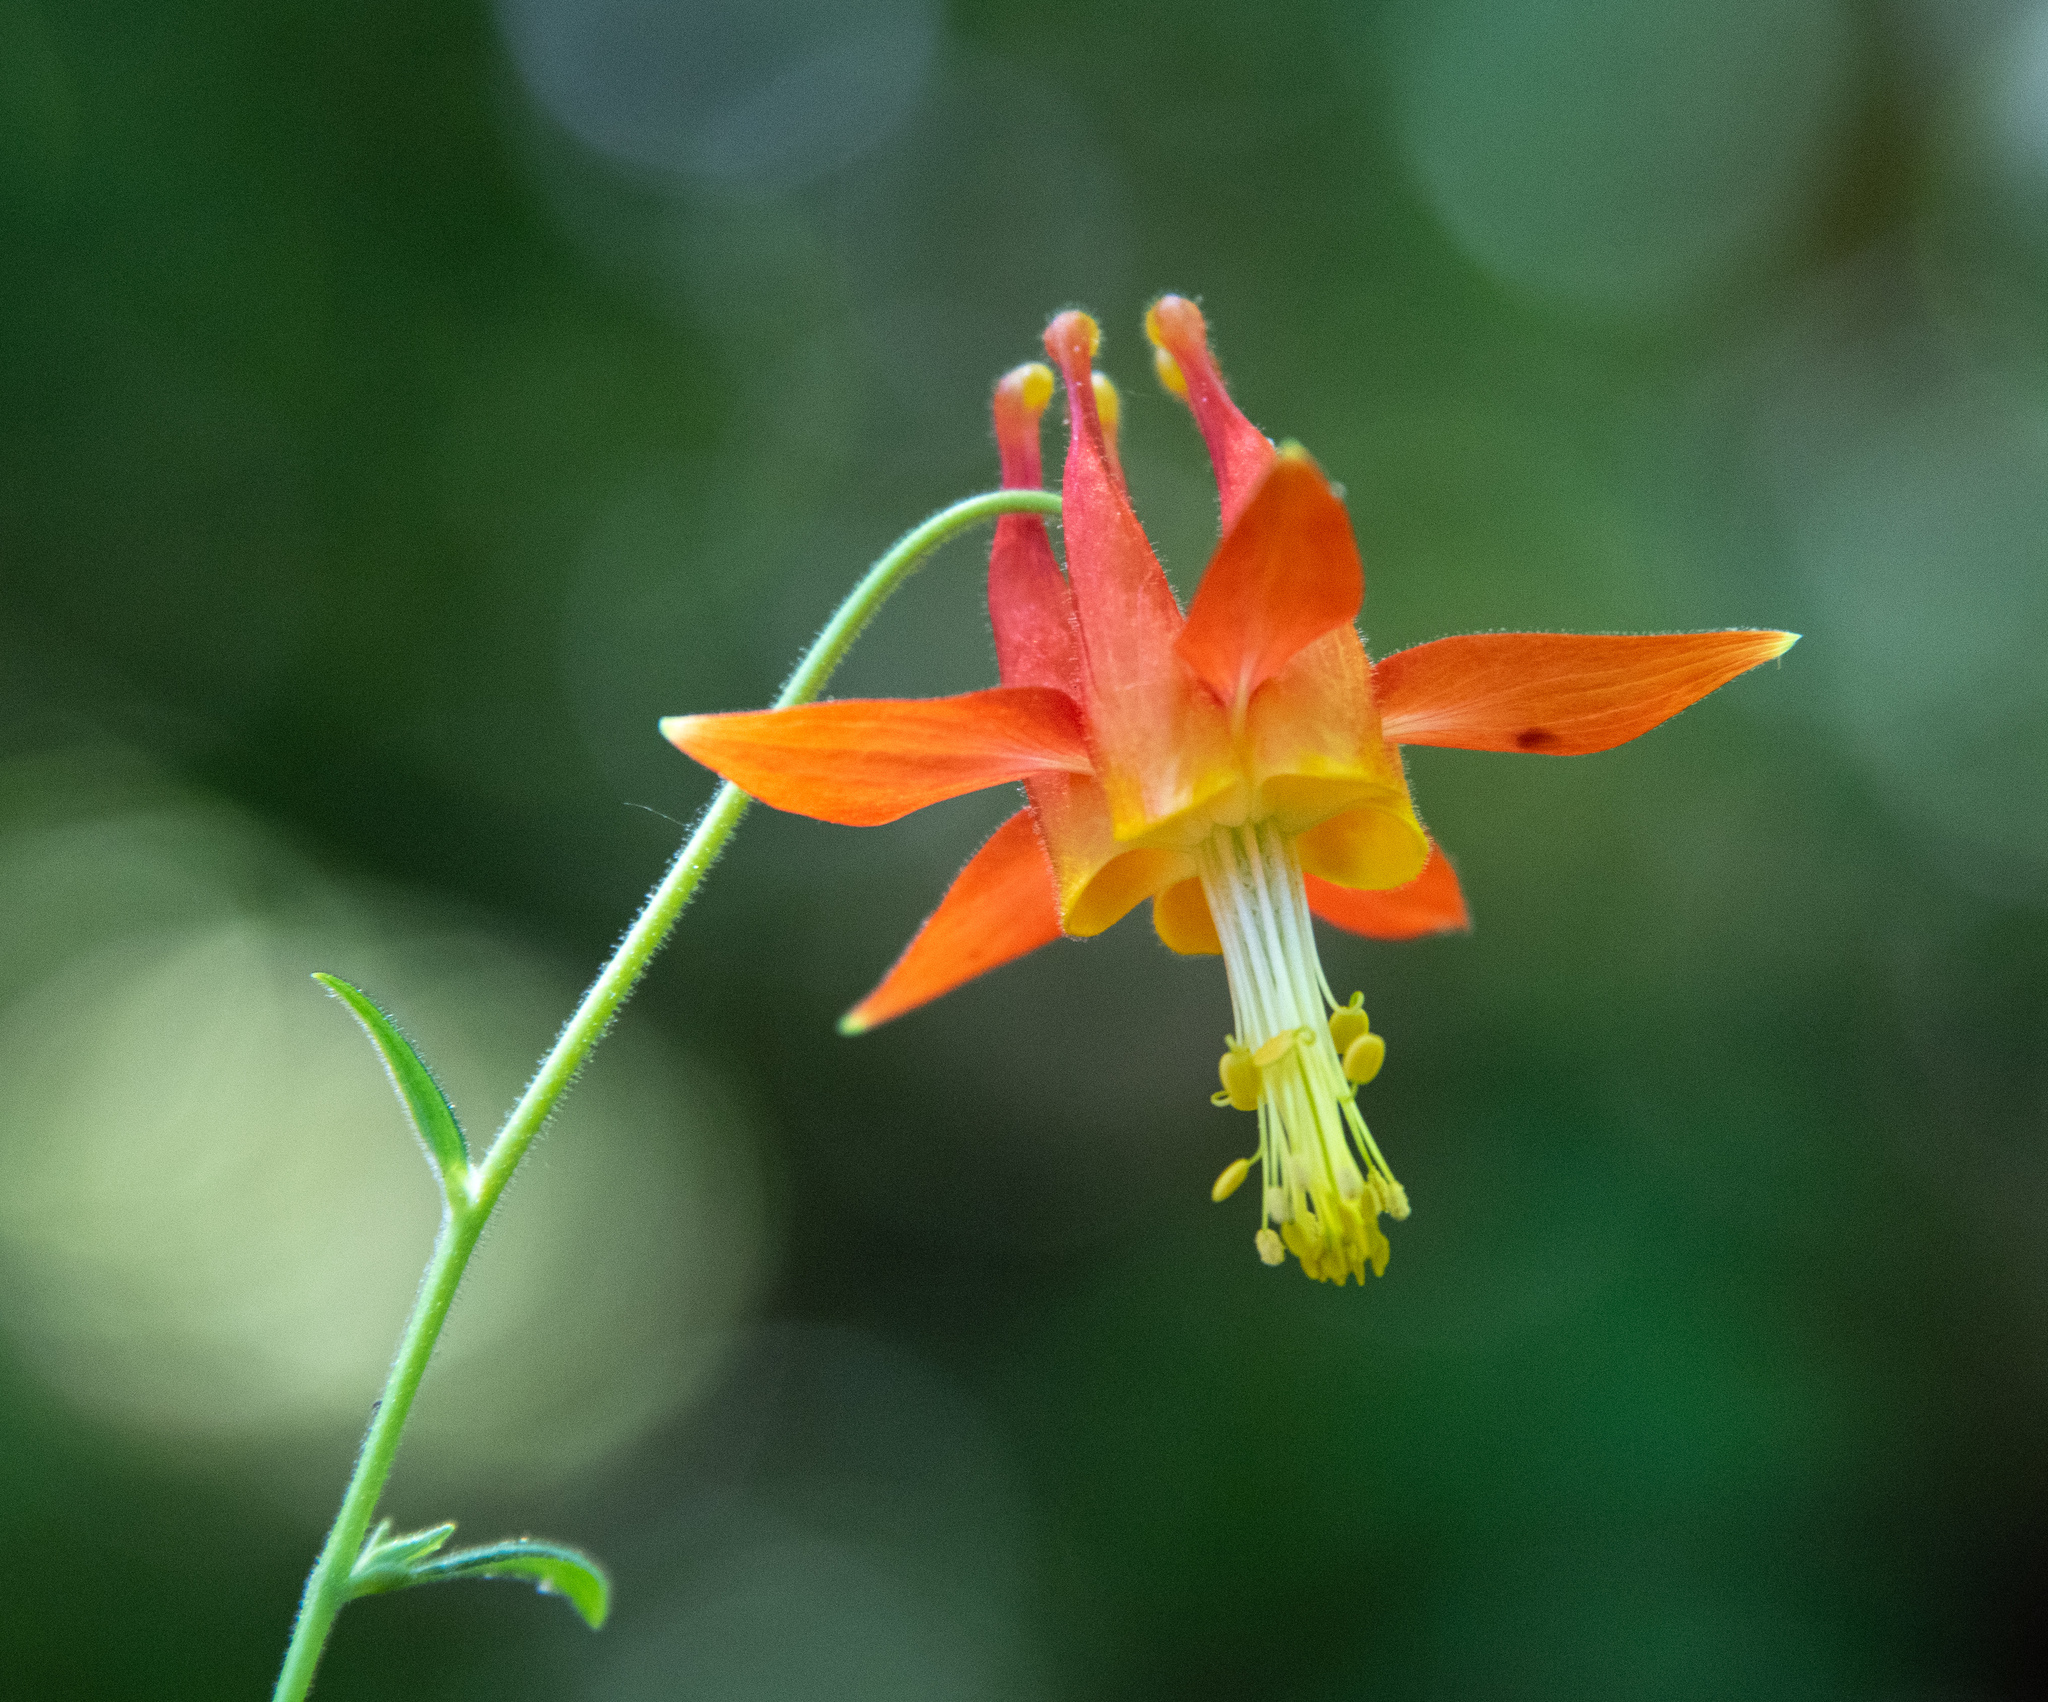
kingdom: Plantae
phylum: Tracheophyta
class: Magnoliopsida
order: Ranunculales
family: Ranunculaceae
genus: Aquilegia
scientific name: Aquilegia formosa
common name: Sitka columbine
